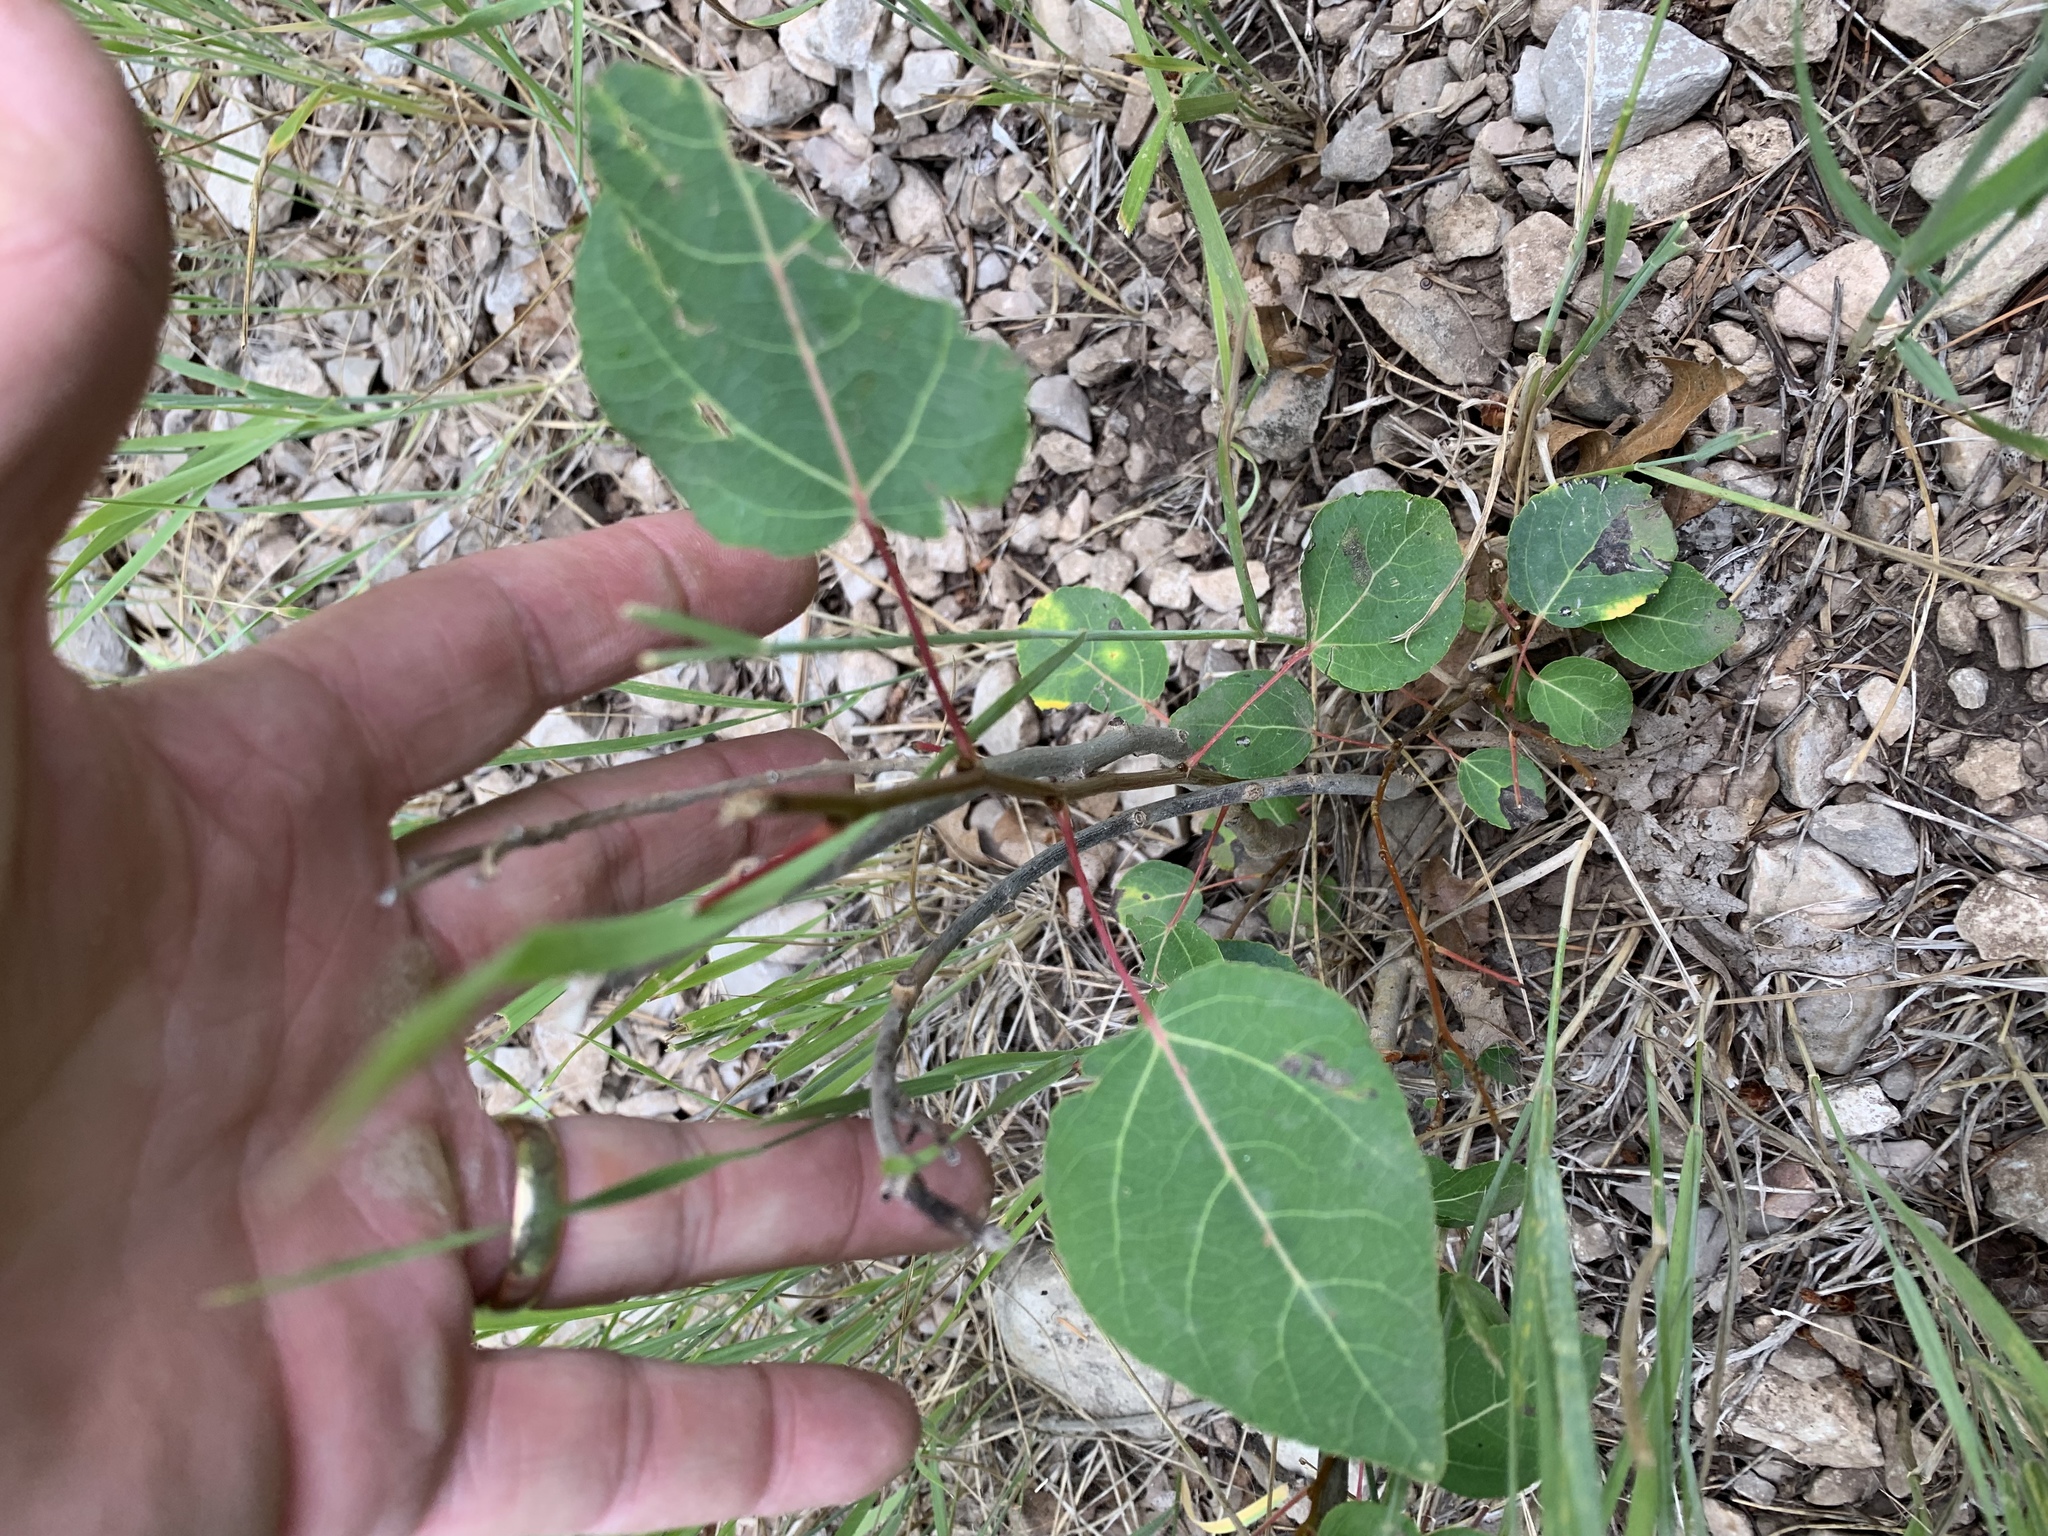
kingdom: Plantae
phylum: Tracheophyta
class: Magnoliopsida
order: Malpighiales
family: Salicaceae
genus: Populus
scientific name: Populus tremuloides
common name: Quaking aspen
